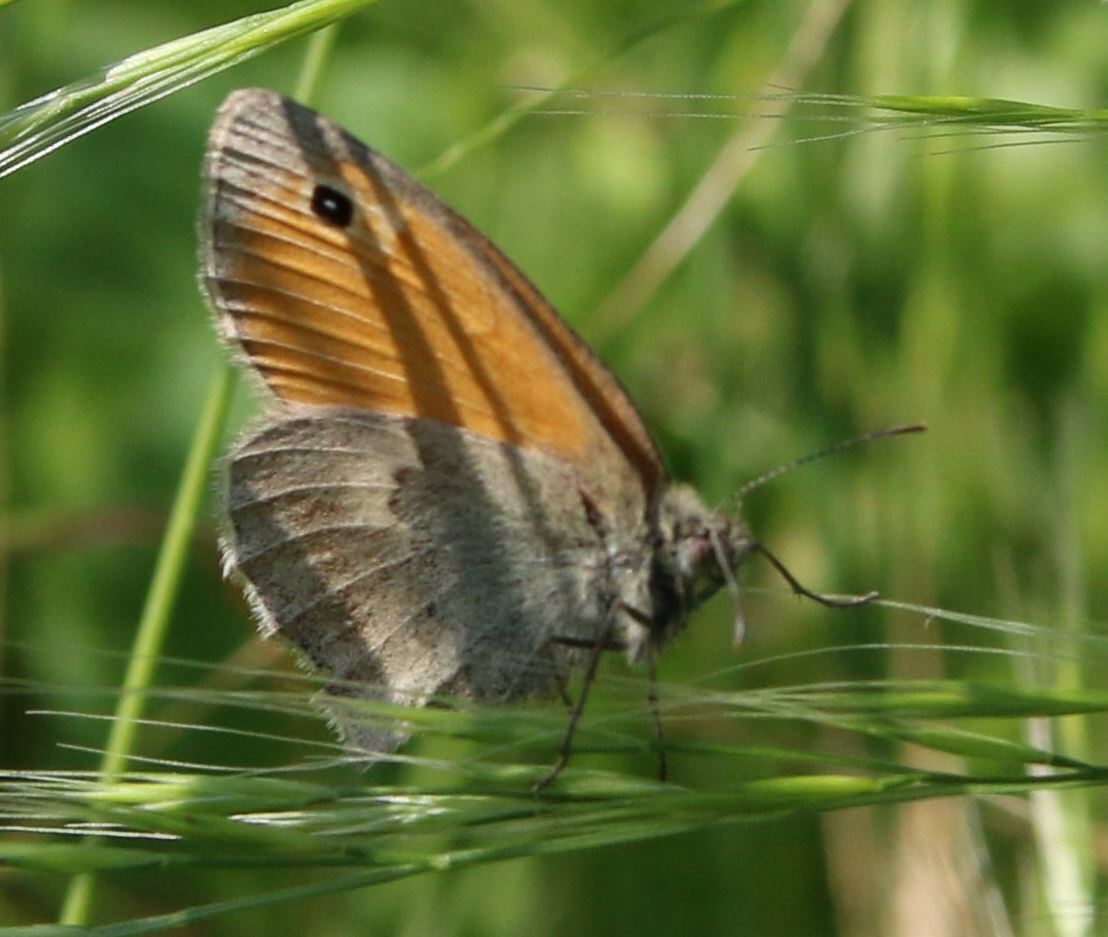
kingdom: Animalia
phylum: Arthropoda
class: Insecta
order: Lepidoptera
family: Nymphalidae
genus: Coenonympha
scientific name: Coenonympha pamphilus
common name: Small heath
